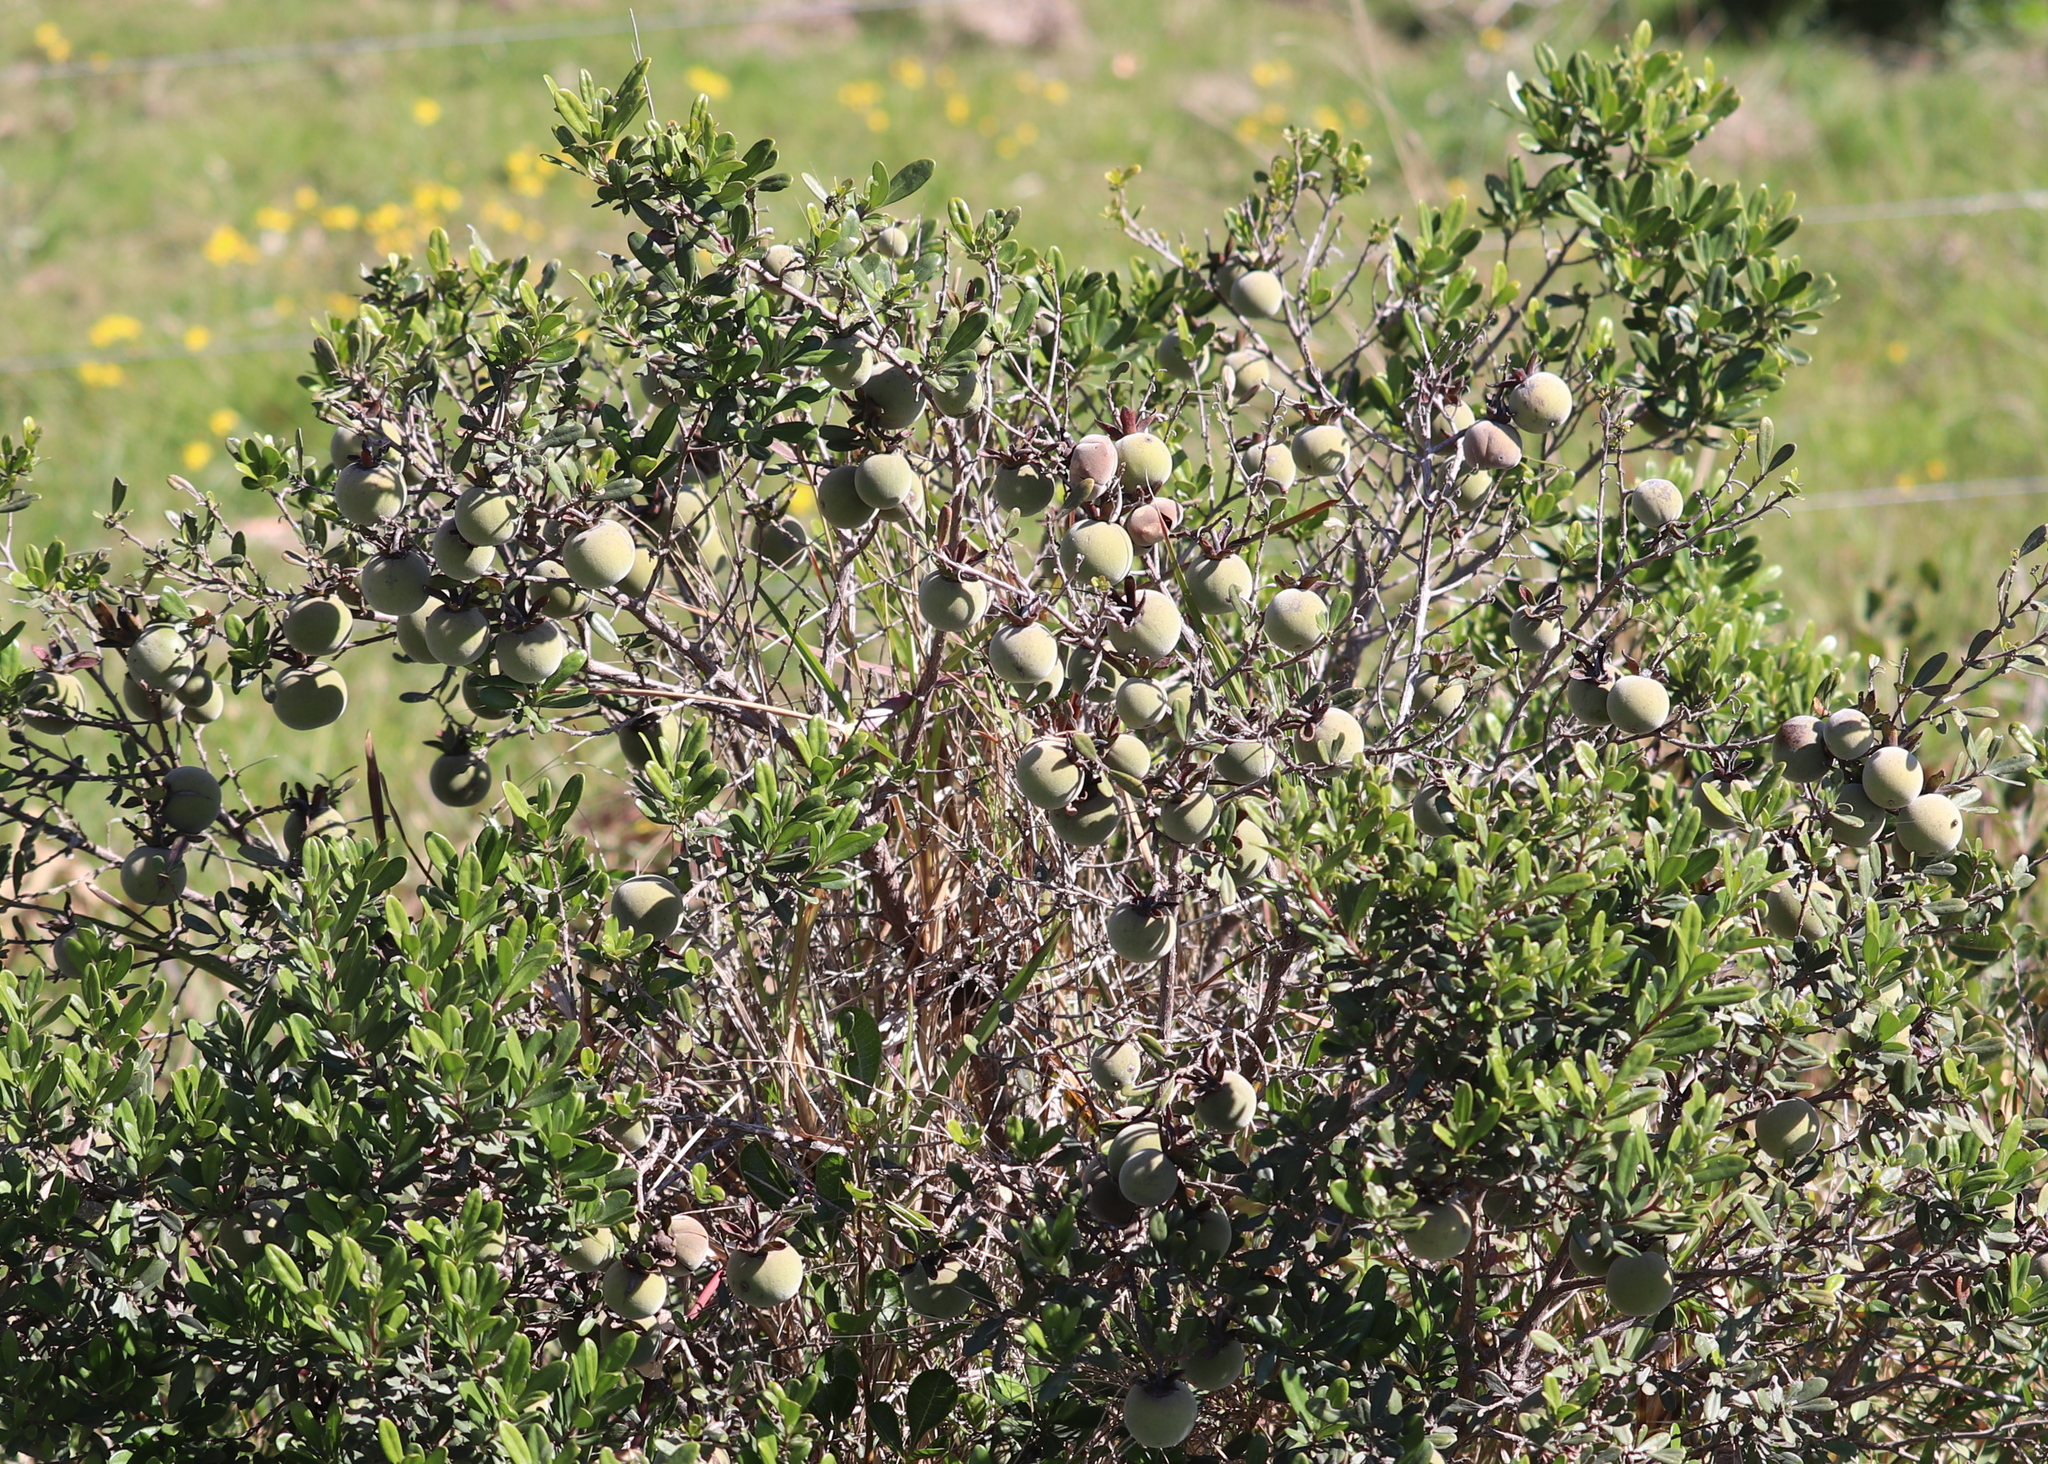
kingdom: Plantae
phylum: Tracheophyta
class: Magnoliopsida
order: Ericales
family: Ebenaceae
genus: Diospyros
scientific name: Diospyros dichrophylla
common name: Common star-apple
